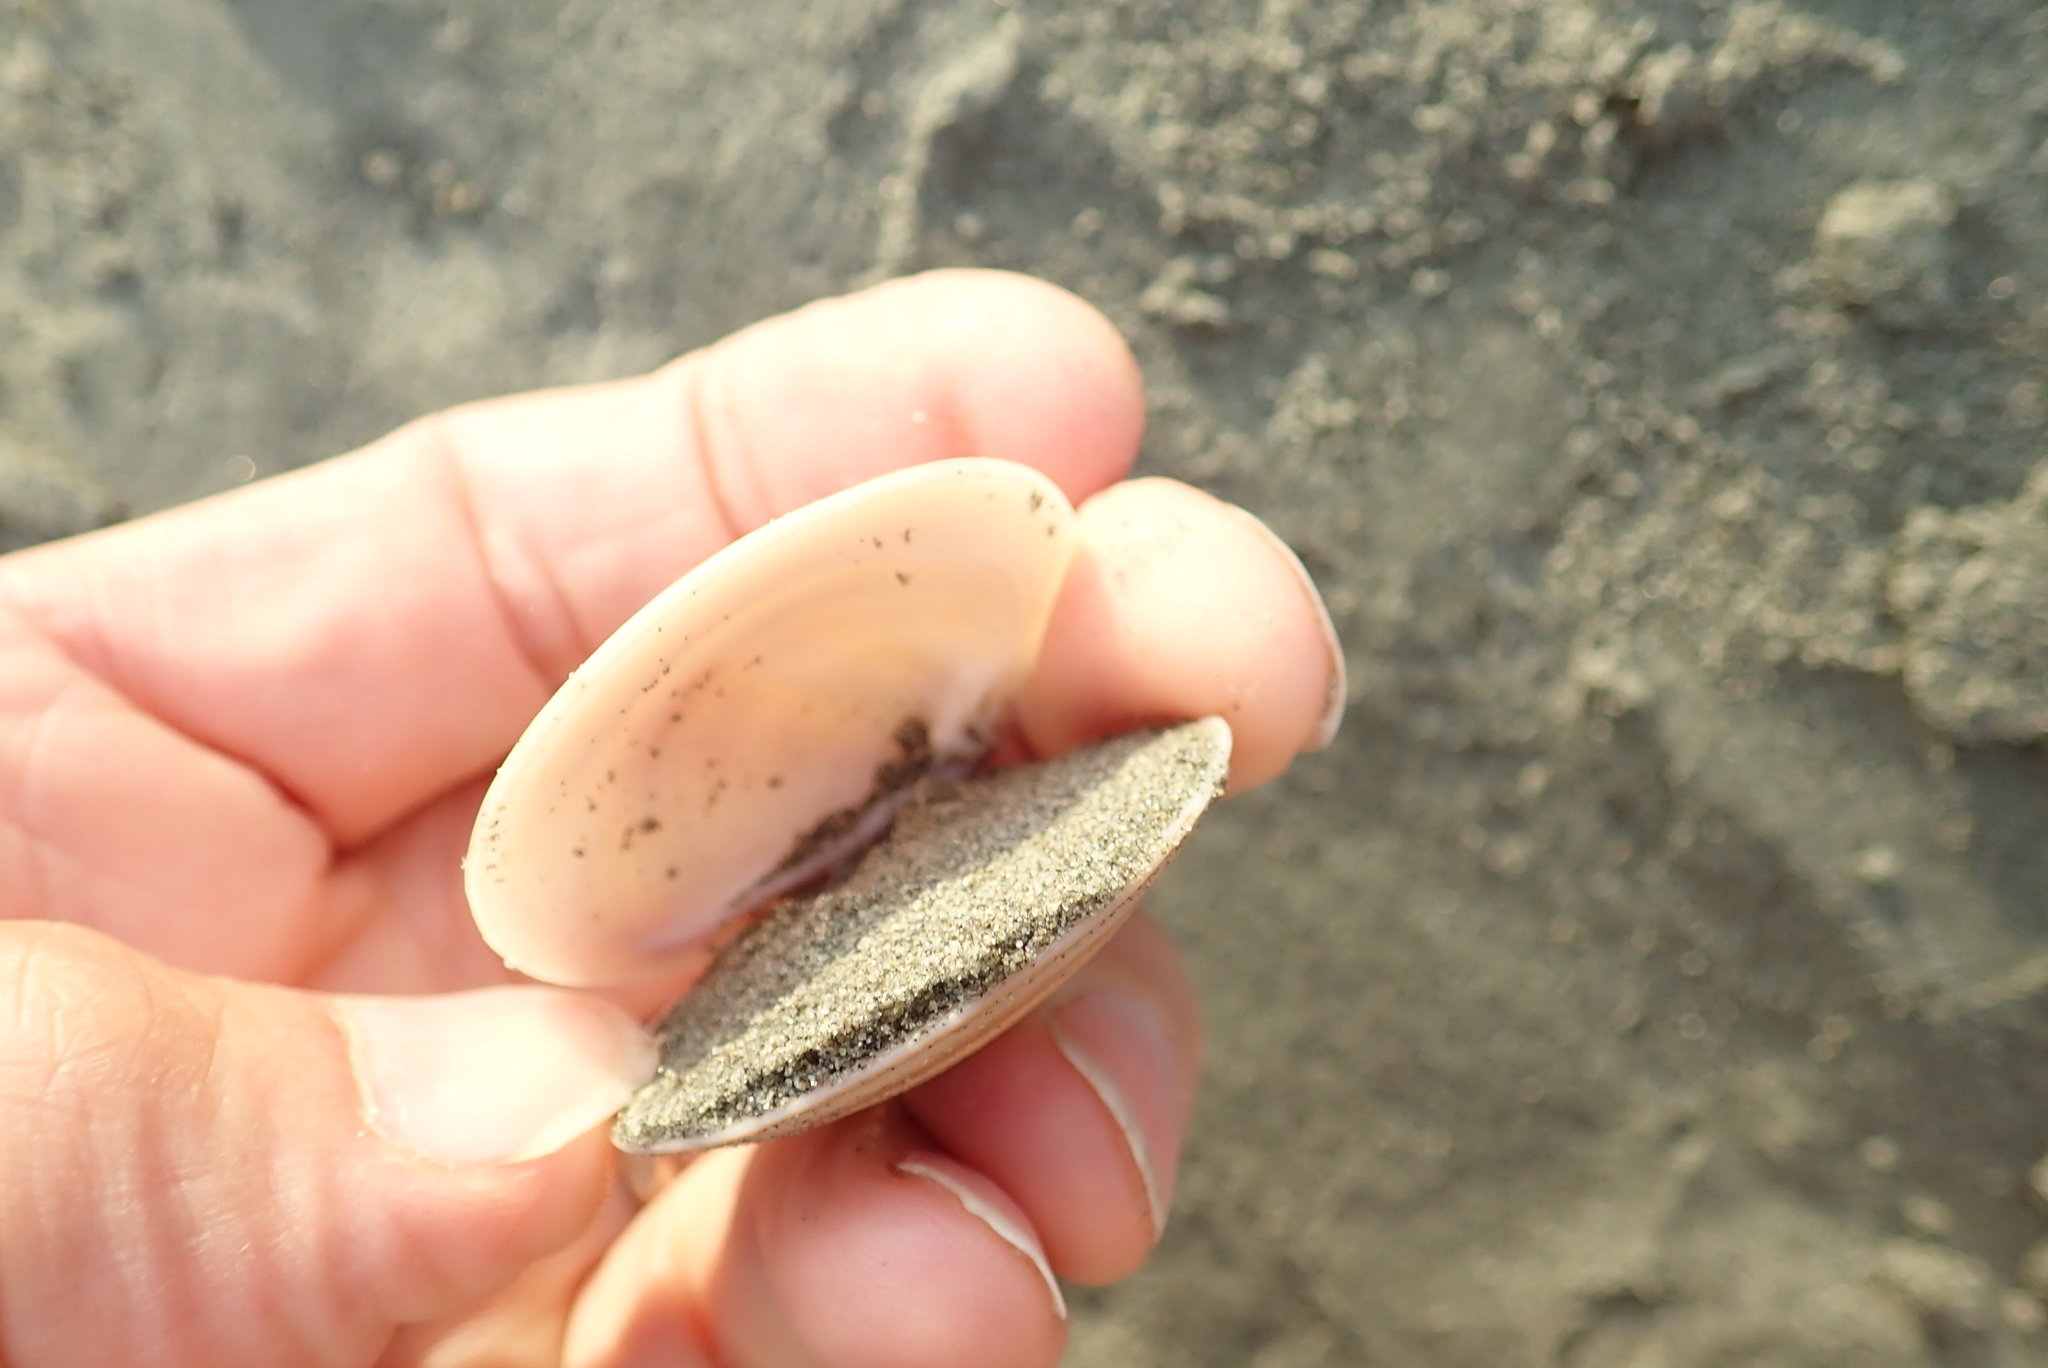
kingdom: Animalia
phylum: Mollusca
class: Bivalvia
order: Venerida
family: Veneridae
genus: Dosinia
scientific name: Dosinia anus
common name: Old-woman dosinia
